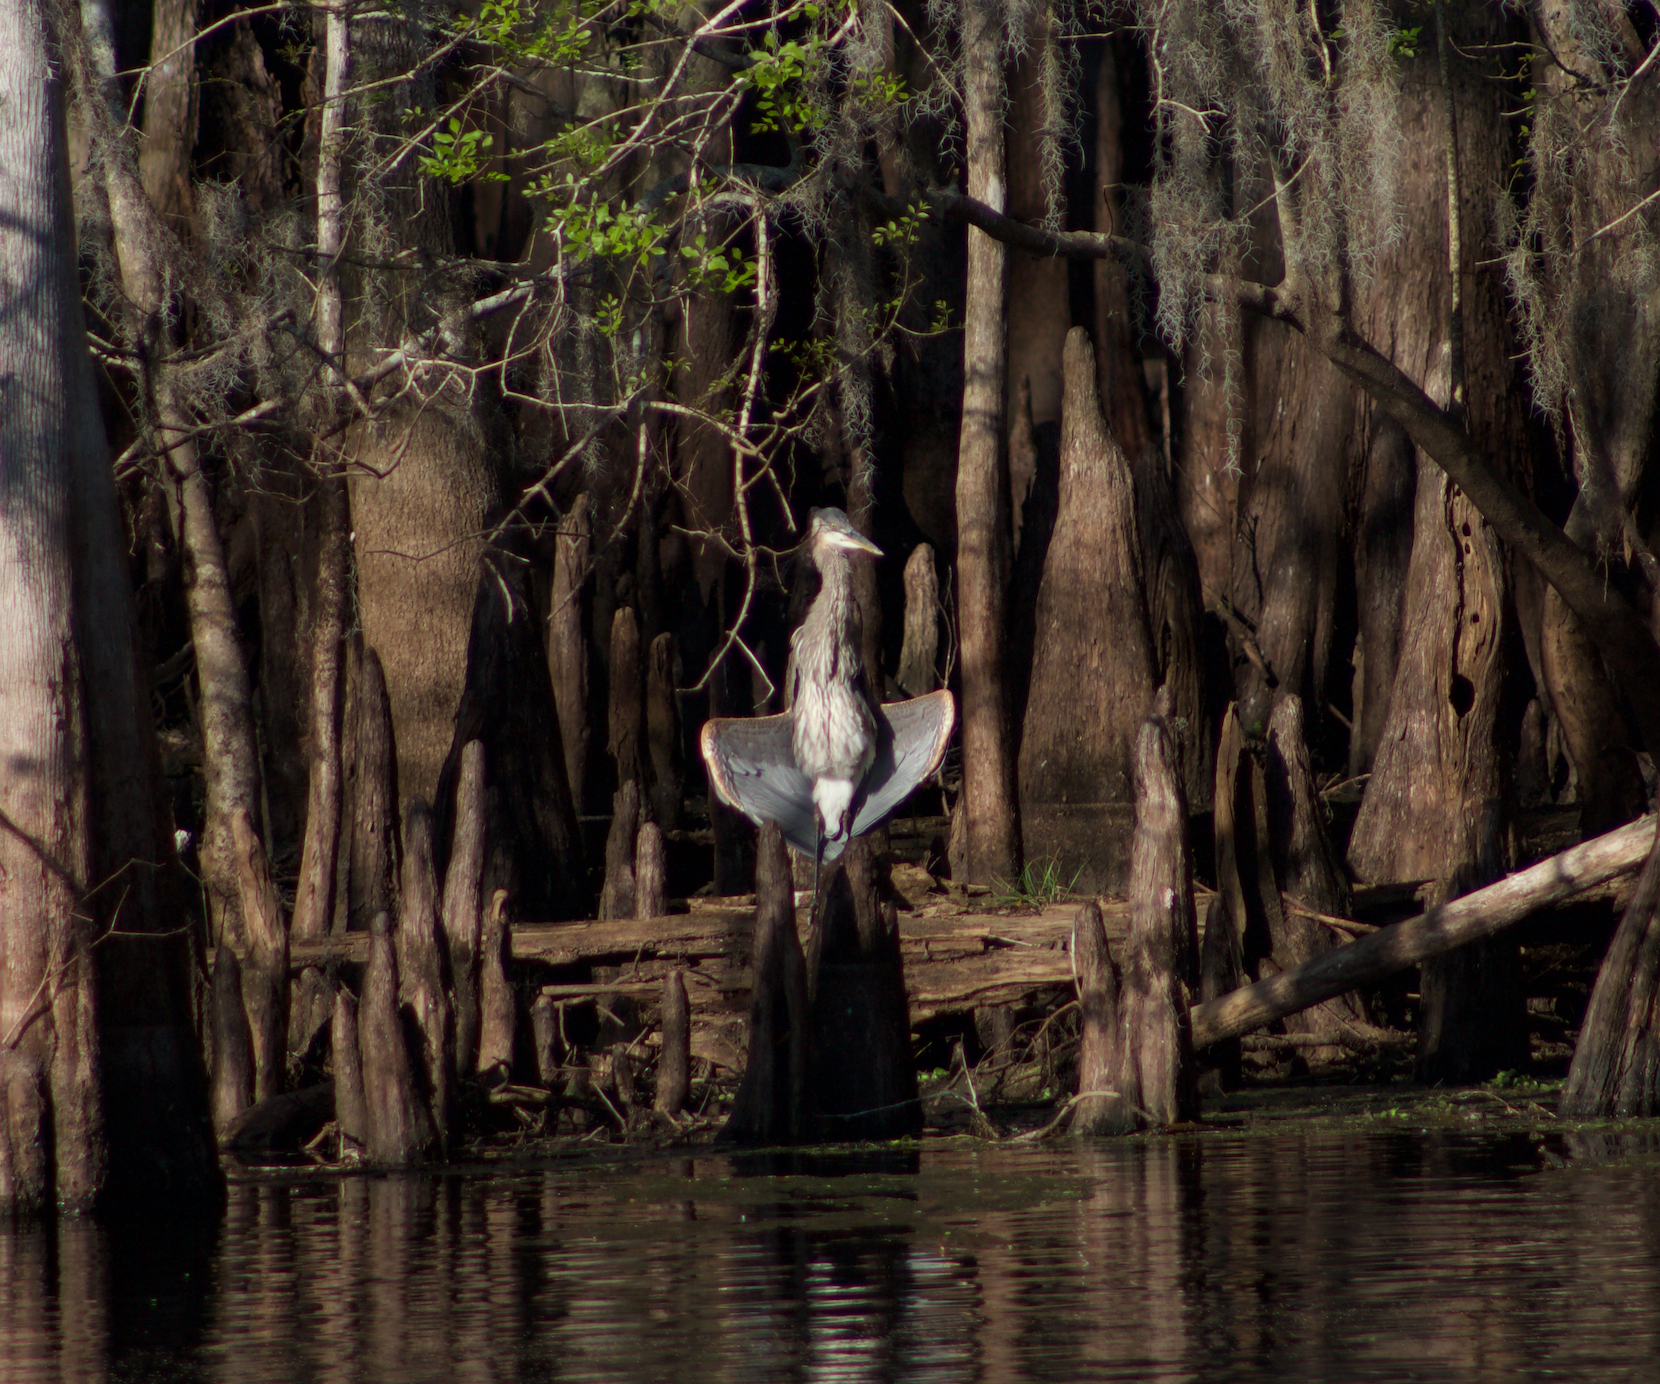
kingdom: Animalia
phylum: Chordata
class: Aves
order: Pelecaniformes
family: Ardeidae
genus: Ardea
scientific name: Ardea herodias
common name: Great blue heron
